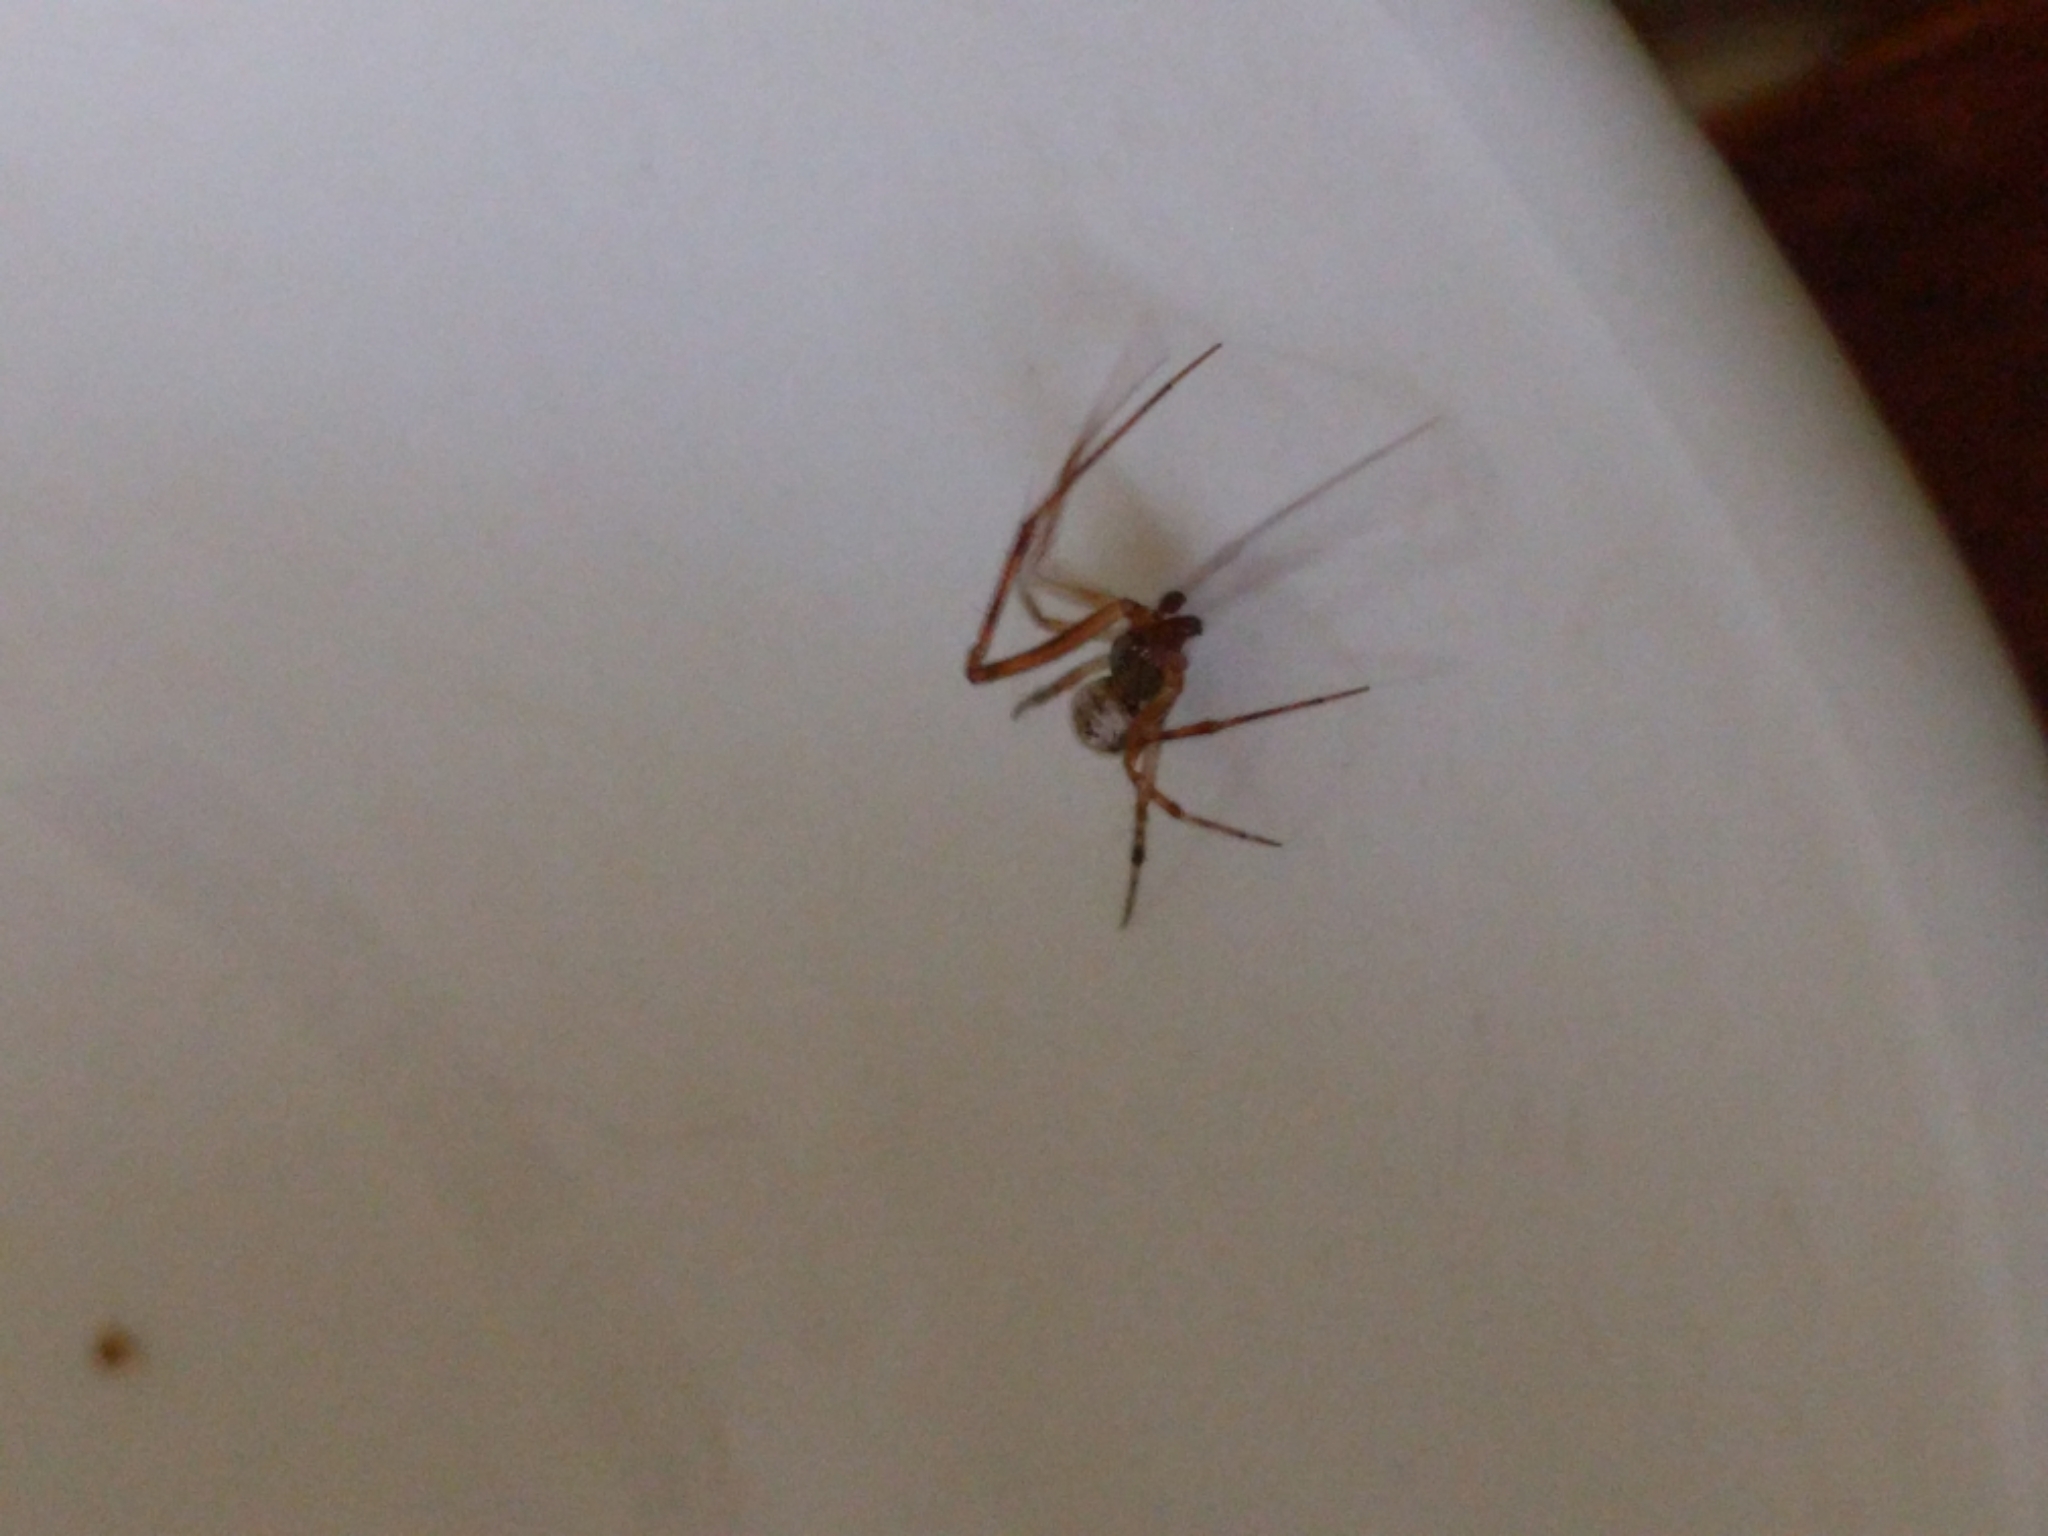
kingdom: Animalia
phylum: Arthropoda
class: Arachnida
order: Araneae
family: Theridiidae
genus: Steatoda
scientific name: Steatoda triangulosa
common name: Triangulate bud spider
